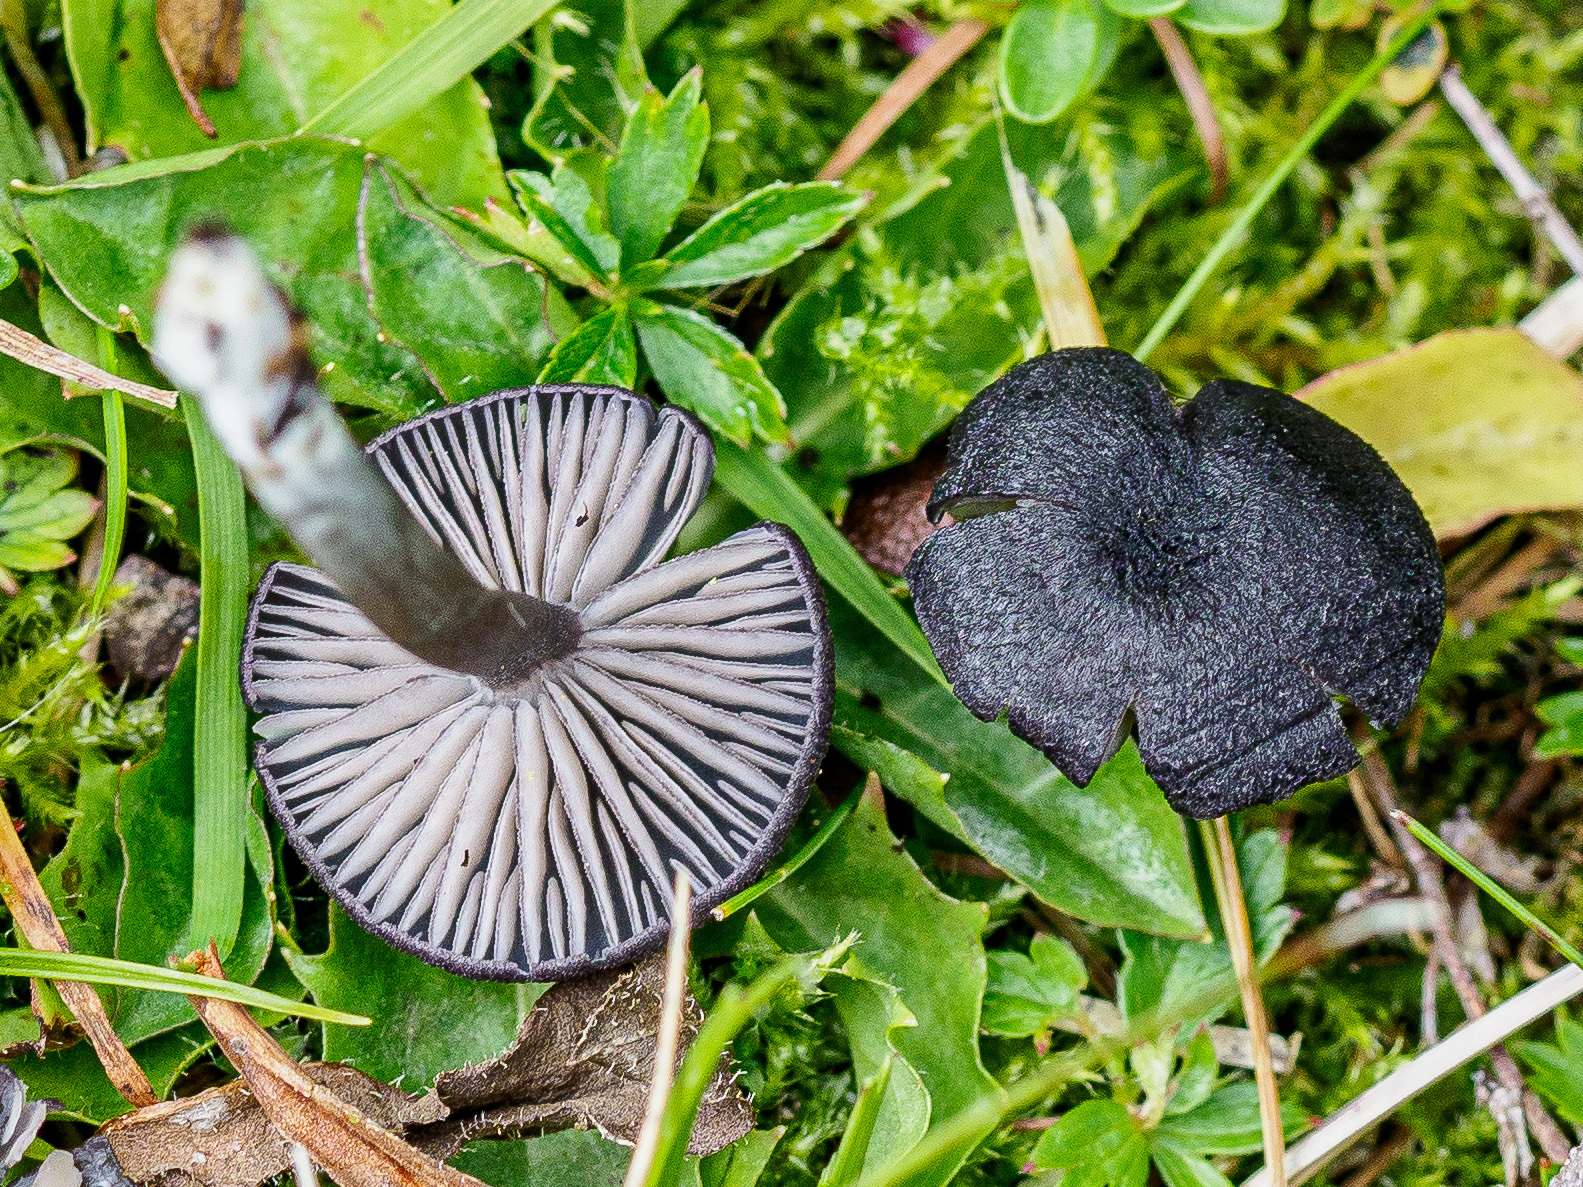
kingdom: Fungi
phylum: Basidiomycota
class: Agaricomycetes
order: Agaricales
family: Entolomataceae
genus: Entoloma
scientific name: Entoloma serrulatum
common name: Blue edge pinkgill
